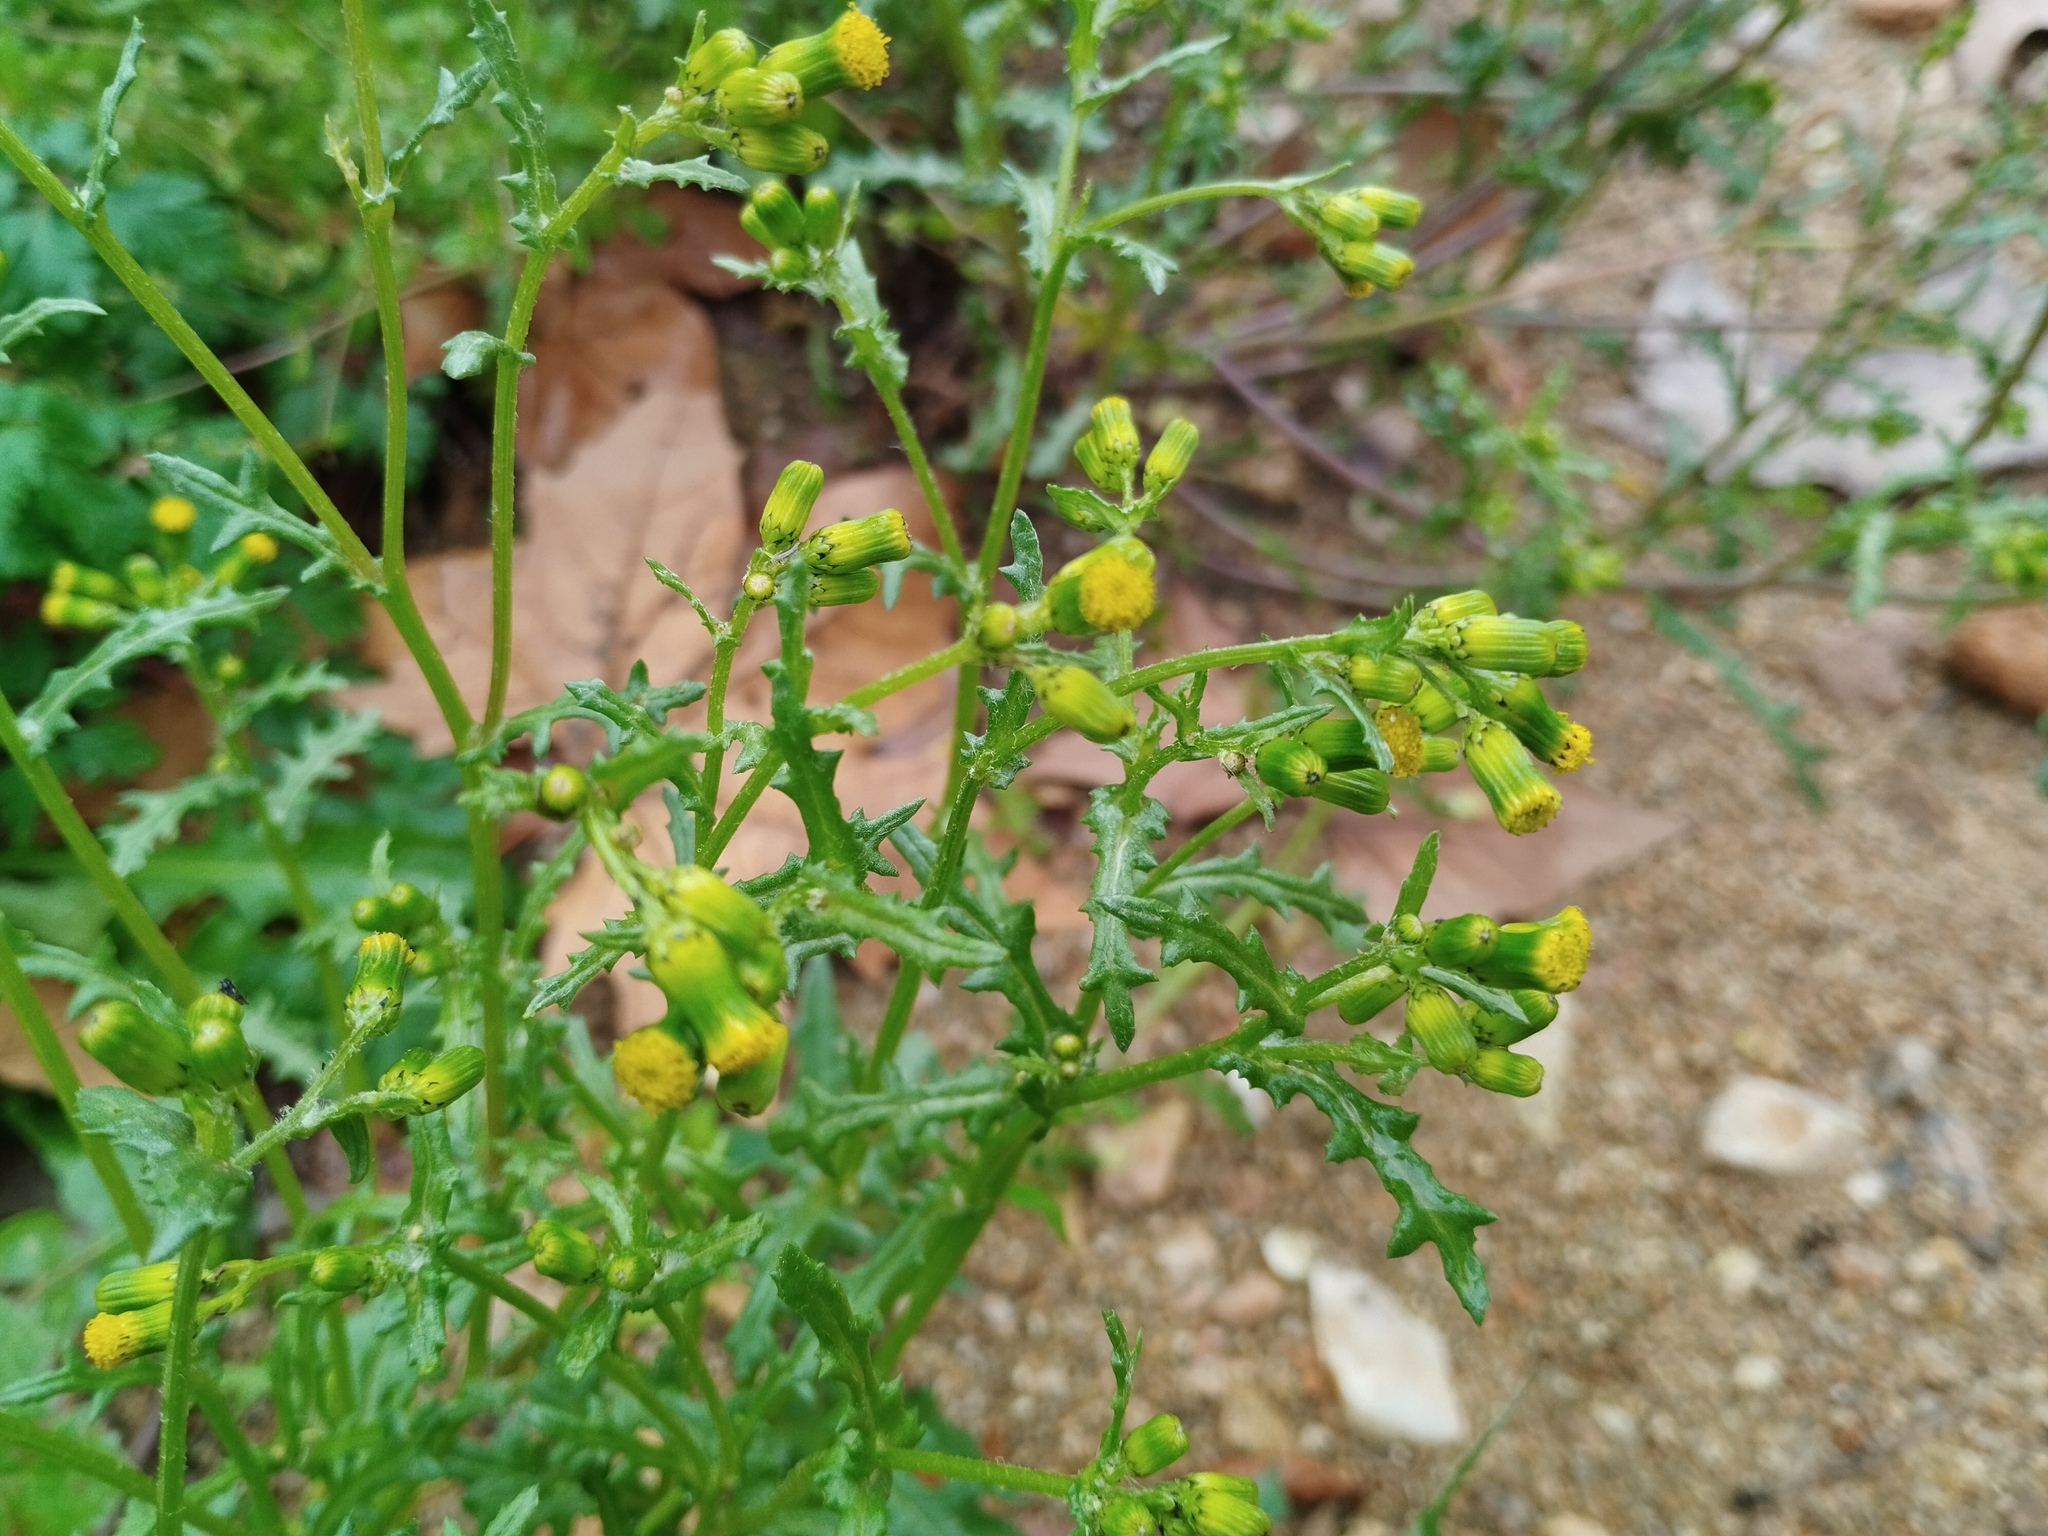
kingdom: Plantae
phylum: Tracheophyta
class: Magnoliopsida
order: Asterales
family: Asteraceae
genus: Senecio
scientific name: Senecio vulgaris
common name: Old-man-in-the-spring
